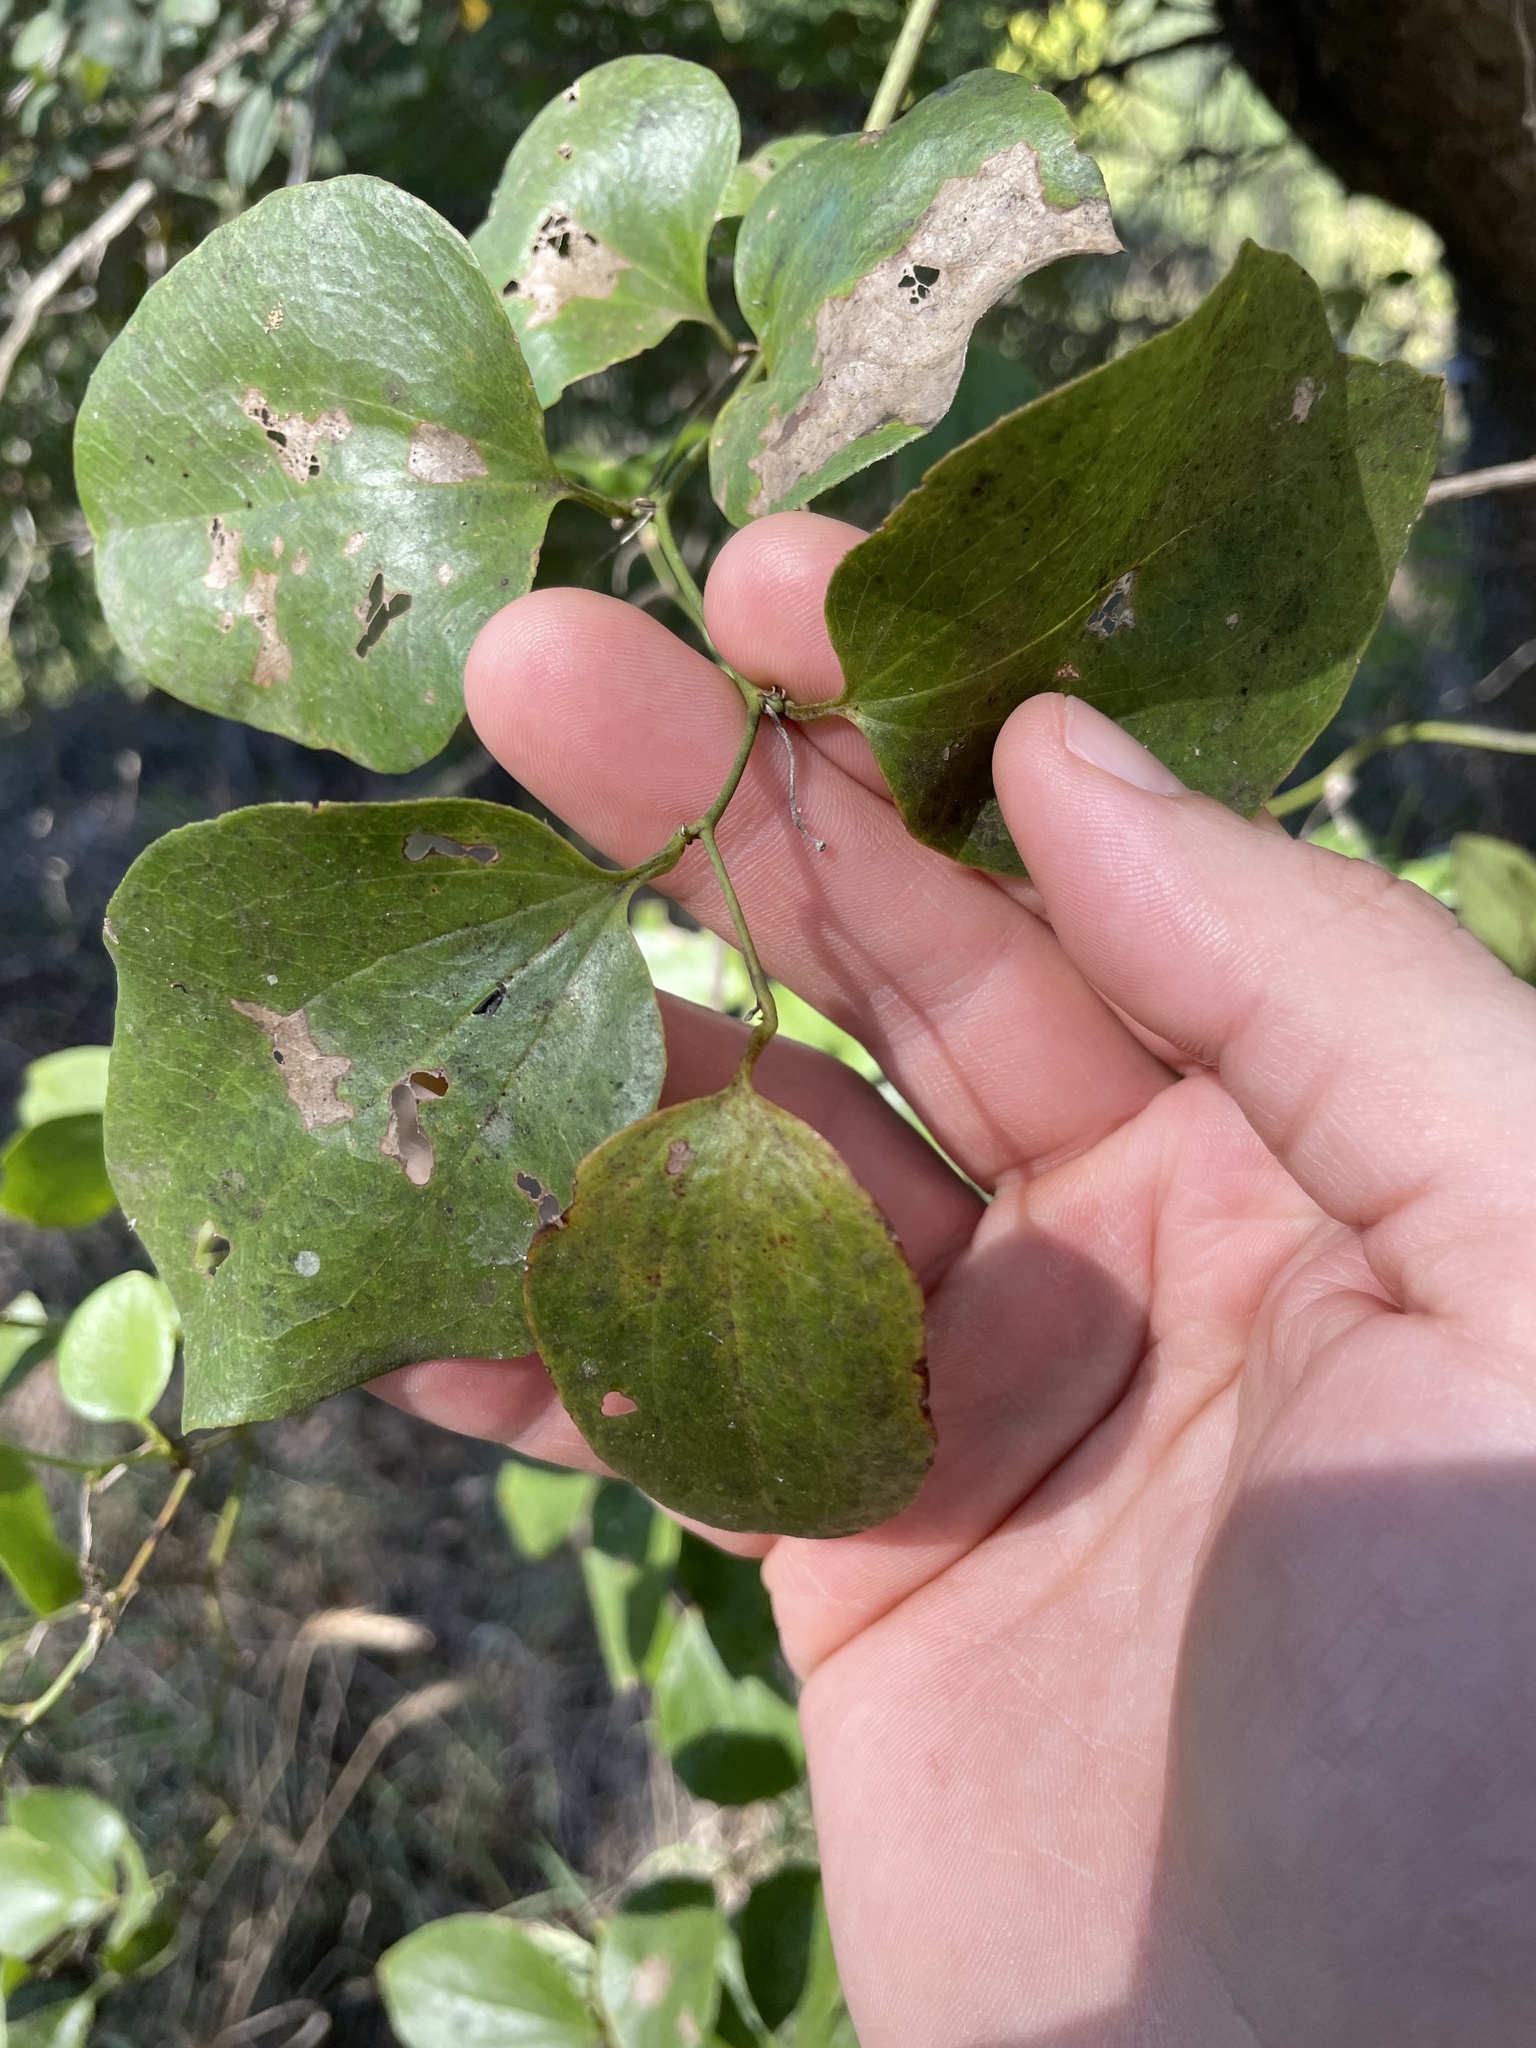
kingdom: Plantae
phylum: Tracheophyta
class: Liliopsida
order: Liliales
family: Smilacaceae
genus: Smilax
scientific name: Smilax rotundifolia
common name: Bullbriar
